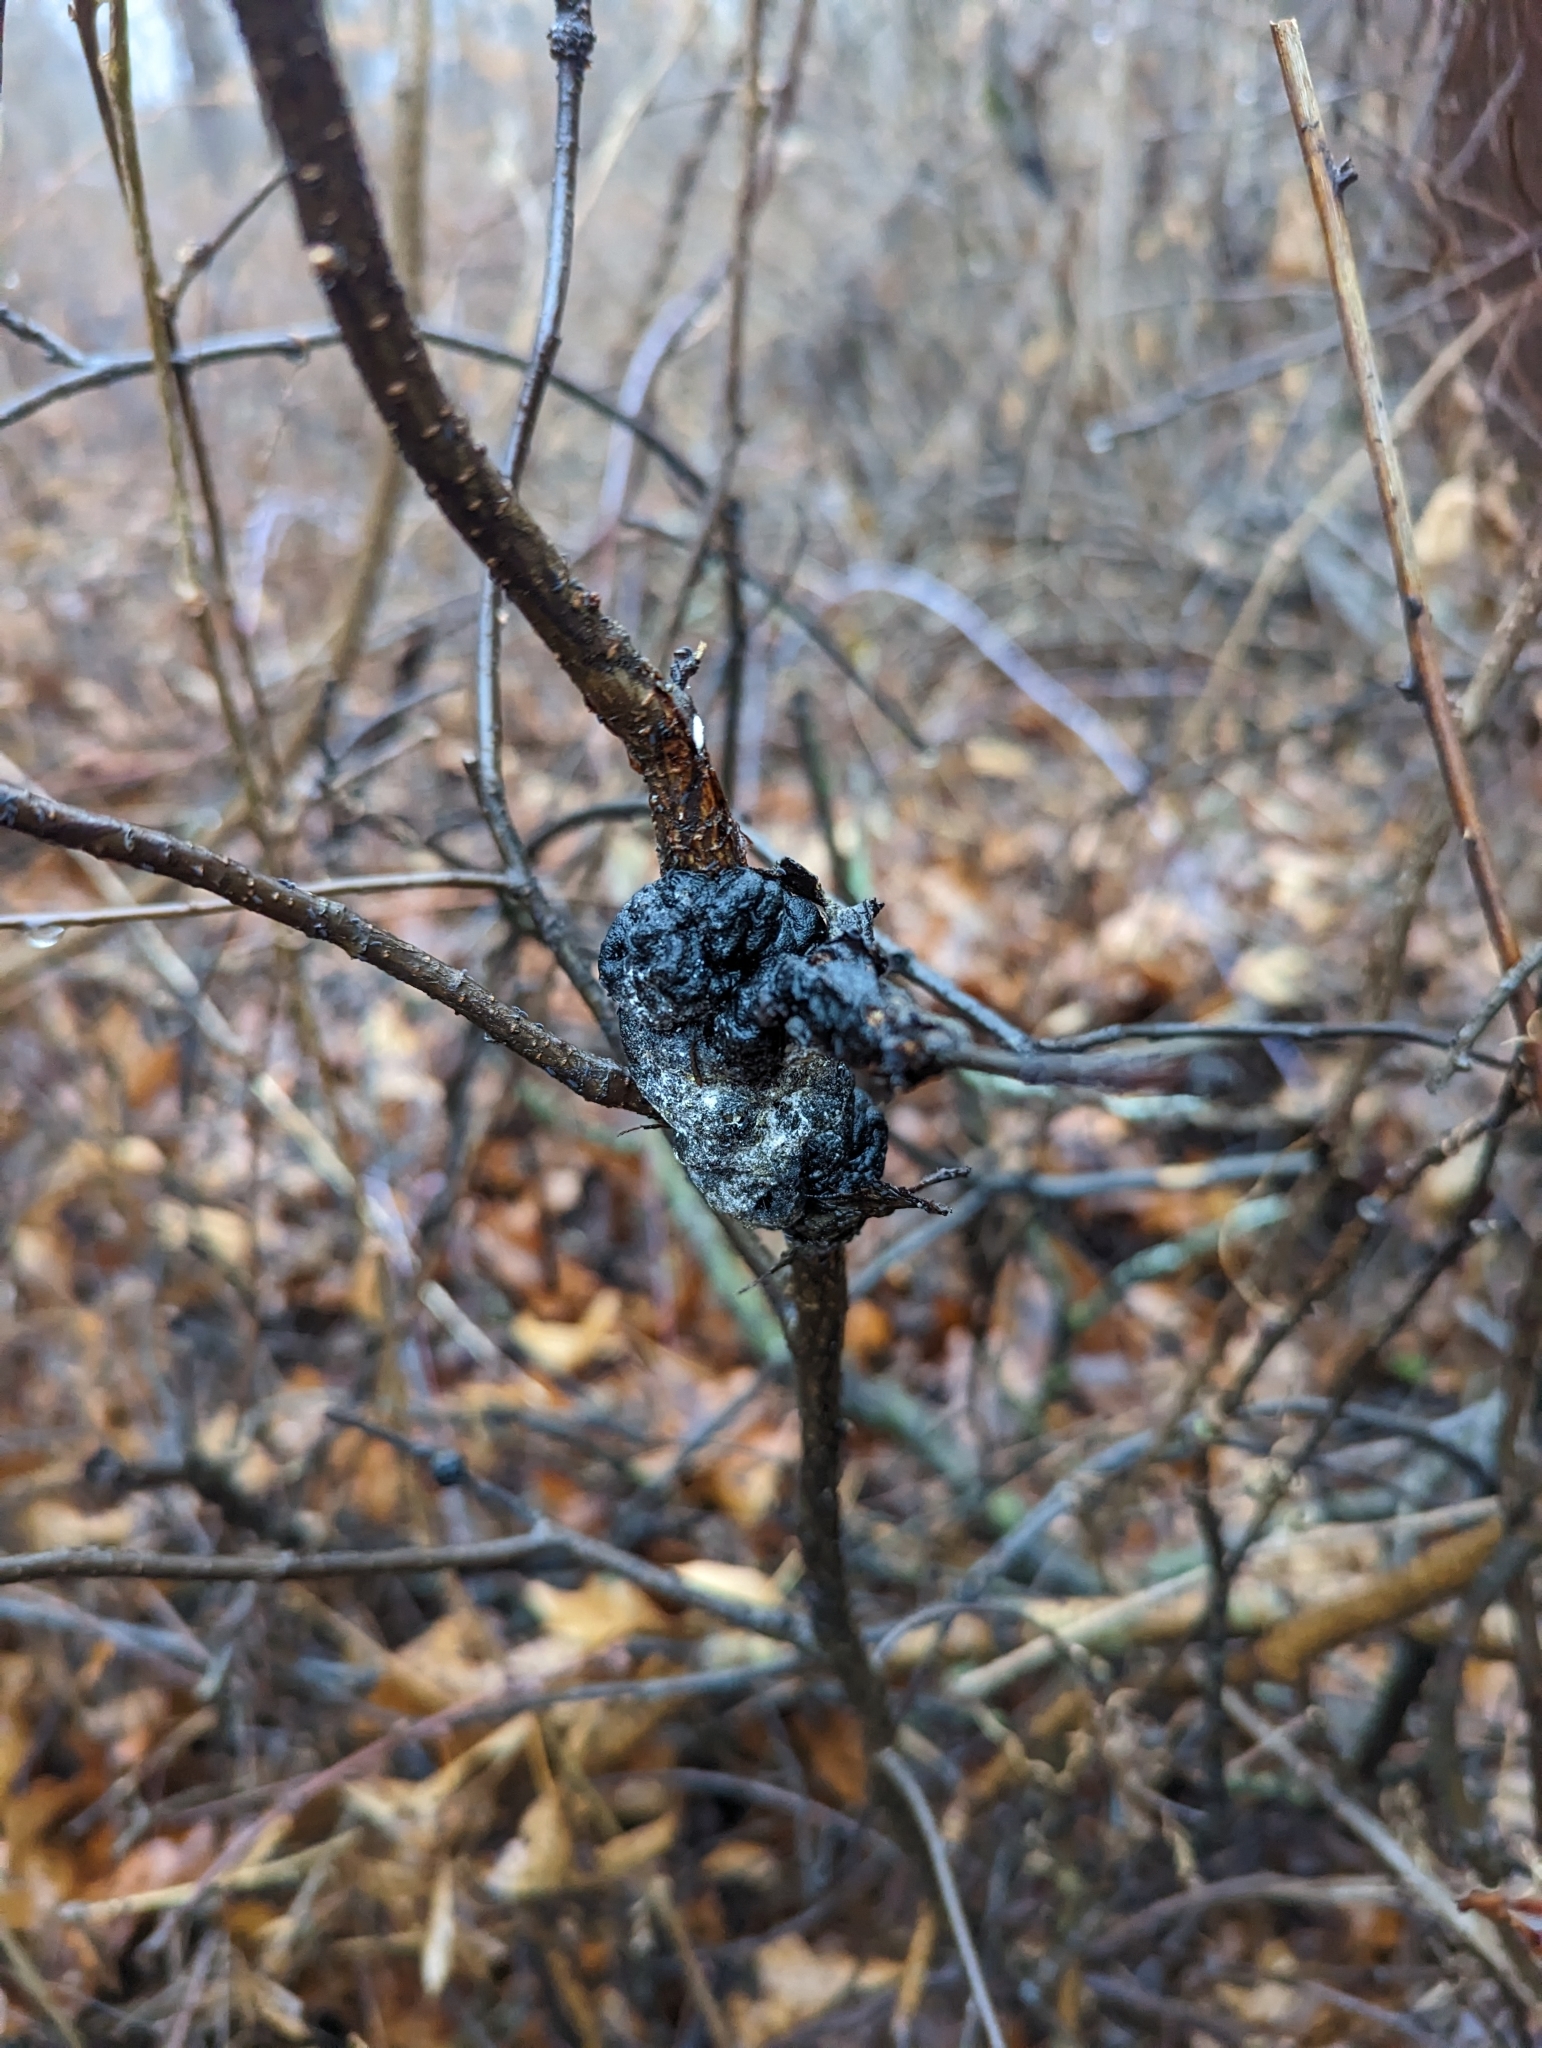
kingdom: Fungi
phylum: Ascomycota
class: Dothideomycetes
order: Venturiales
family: Venturiaceae
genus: Apiosporina
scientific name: Apiosporina morbosa
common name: Black knot
